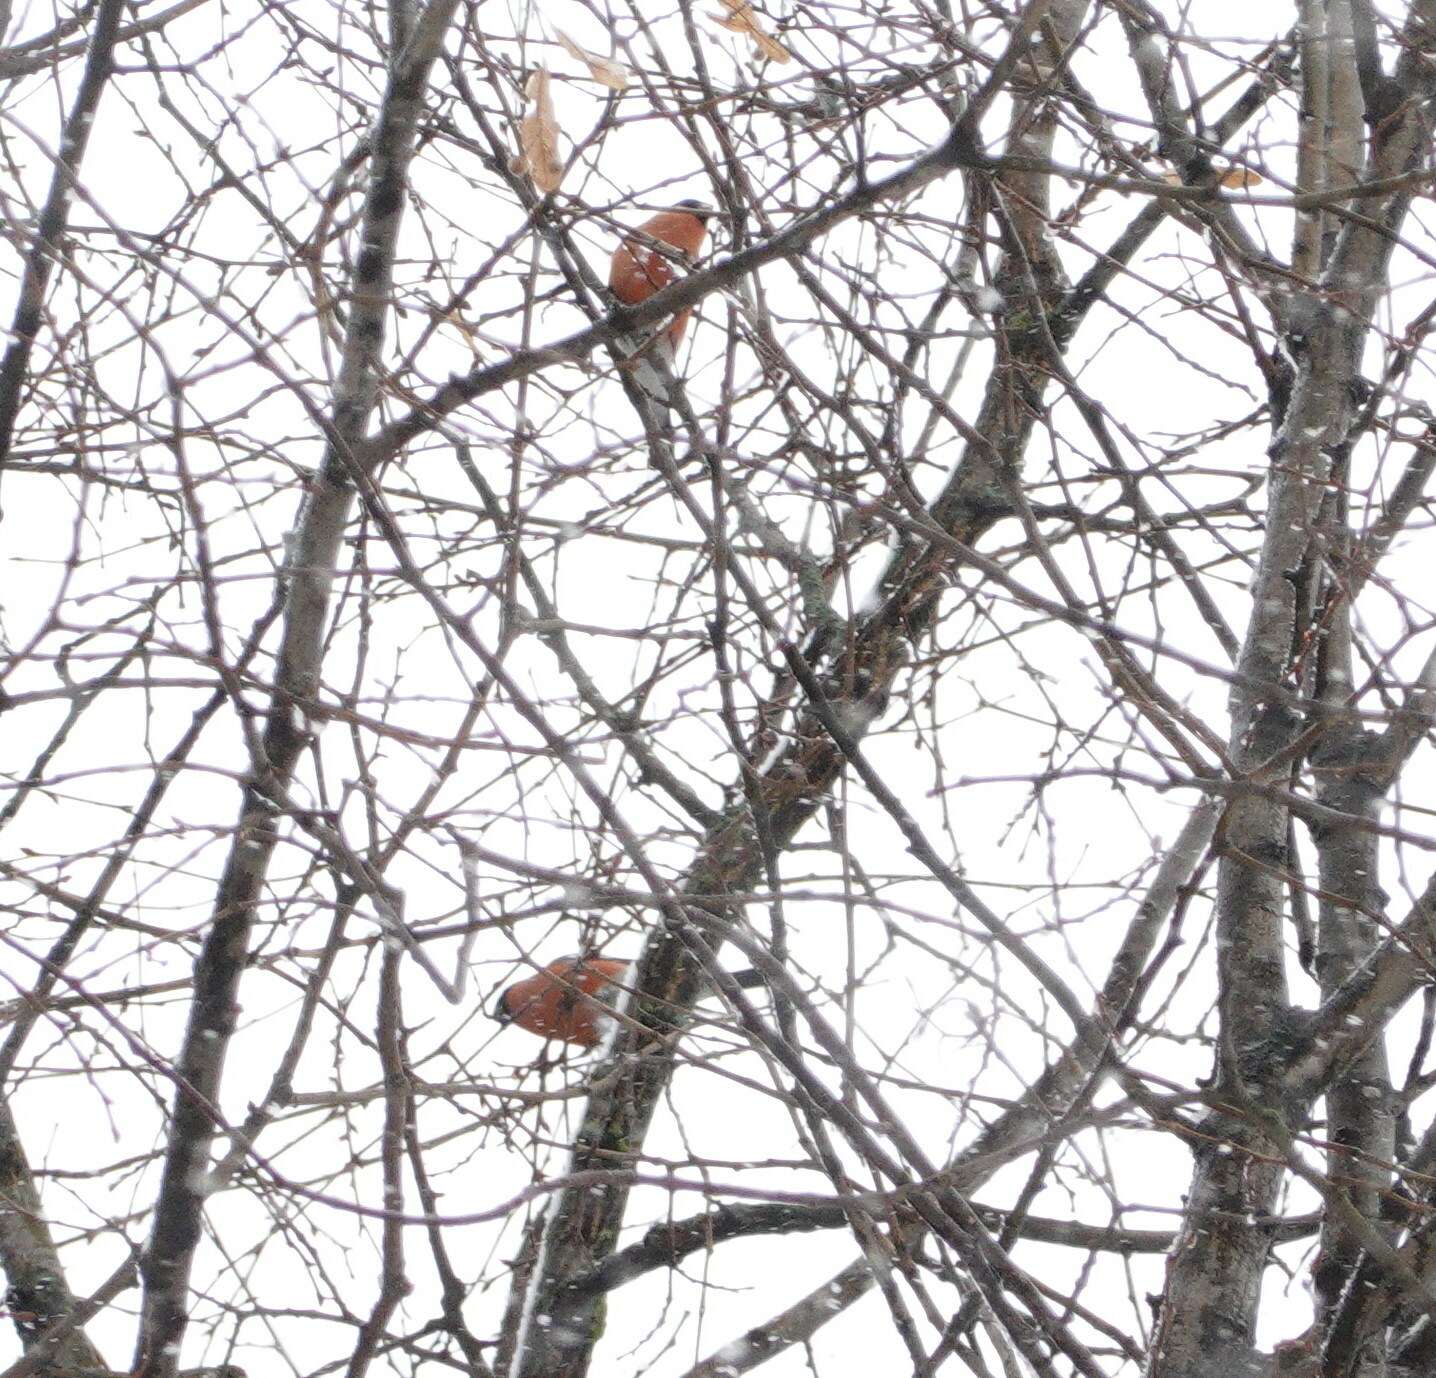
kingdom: Animalia
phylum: Chordata
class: Aves
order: Passeriformes
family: Fringillidae
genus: Pyrrhula
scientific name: Pyrrhula pyrrhula
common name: Eurasian bullfinch
